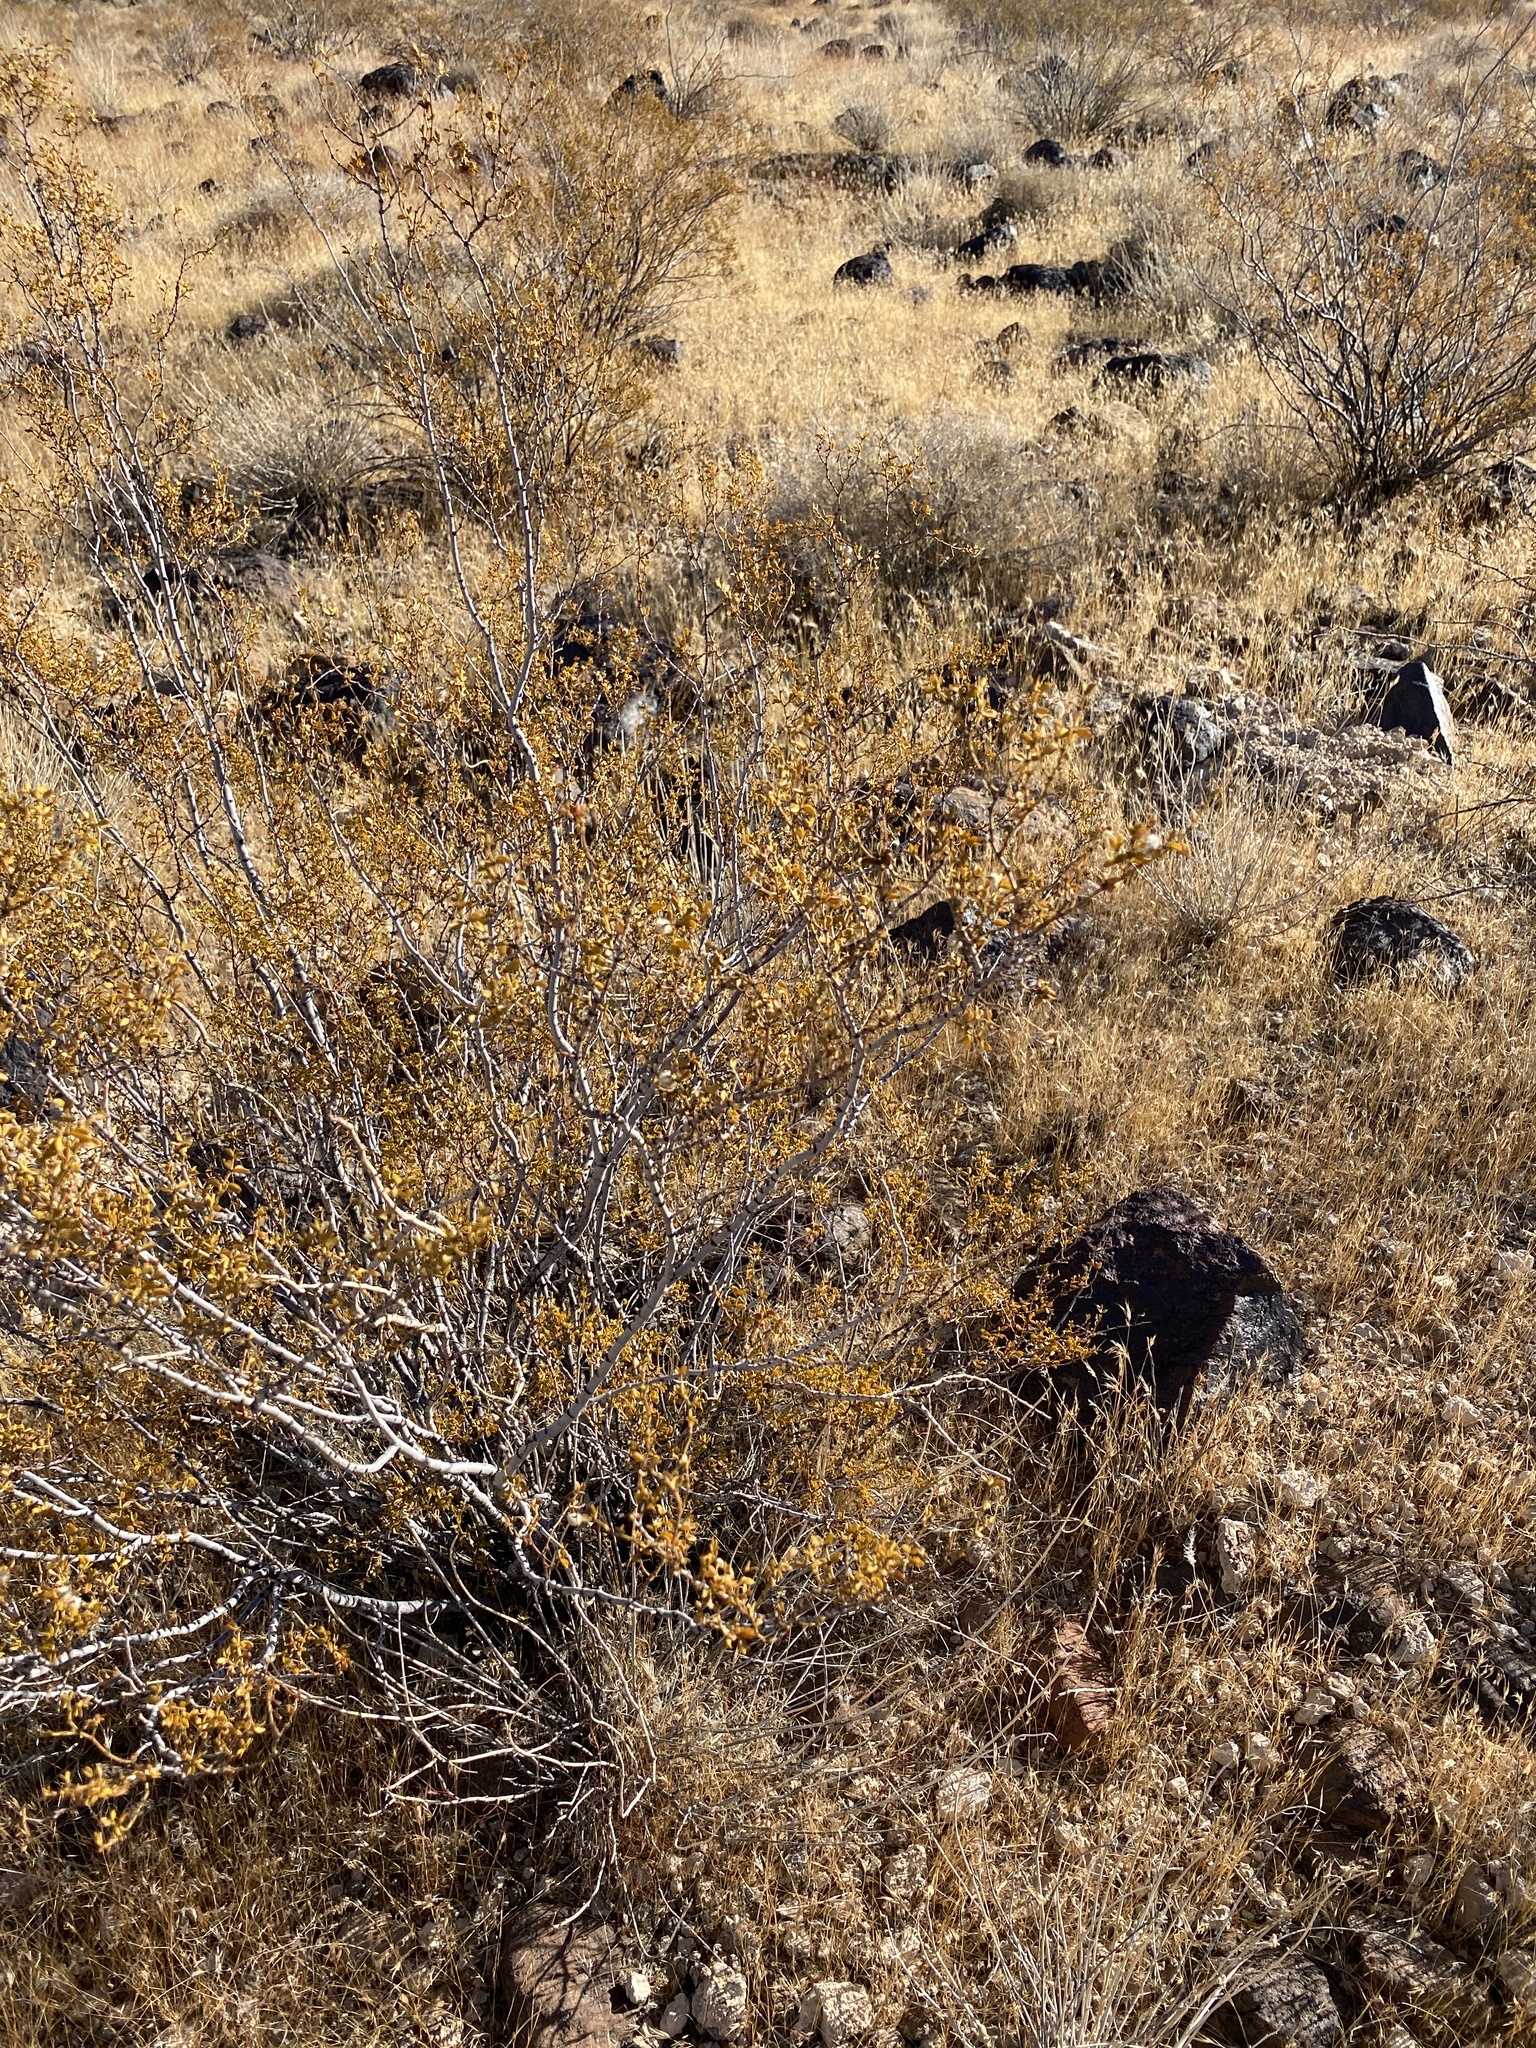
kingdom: Plantae
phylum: Tracheophyta
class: Magnoliopsida
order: Zygophyllales
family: Zygophyllaceae
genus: Larrea
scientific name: Larrea tridentata
